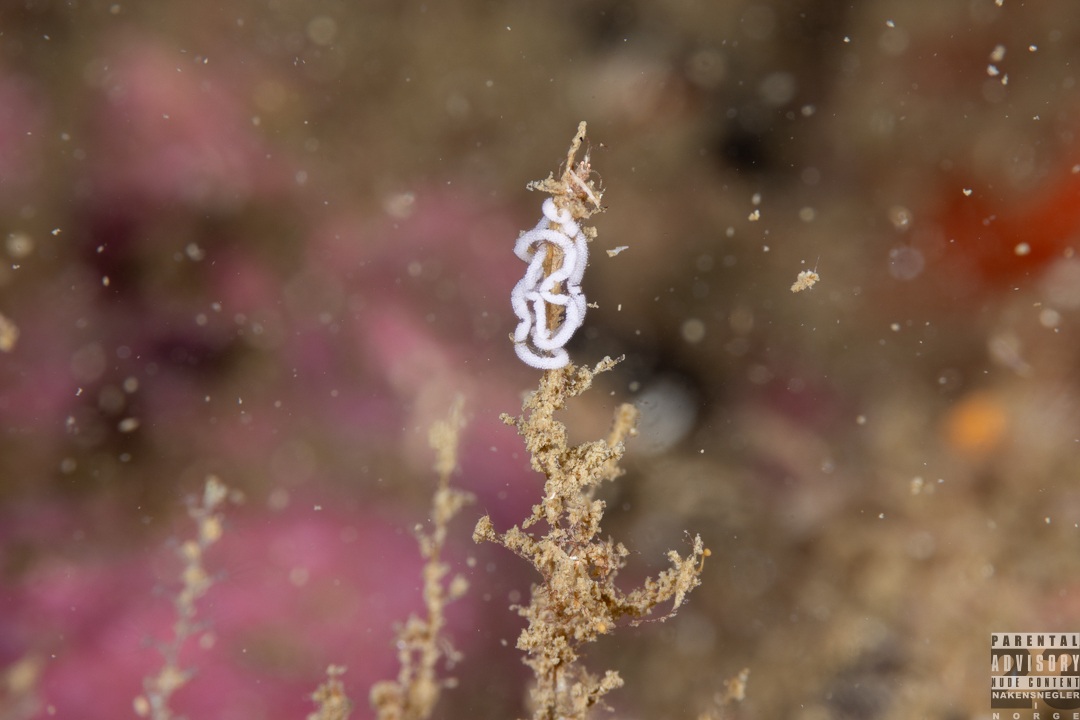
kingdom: Animalia
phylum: Mollusca
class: Gastropoda
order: Nudibranchia
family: Flabellinidae
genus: Edmundsella
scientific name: Edmundsella pedata
